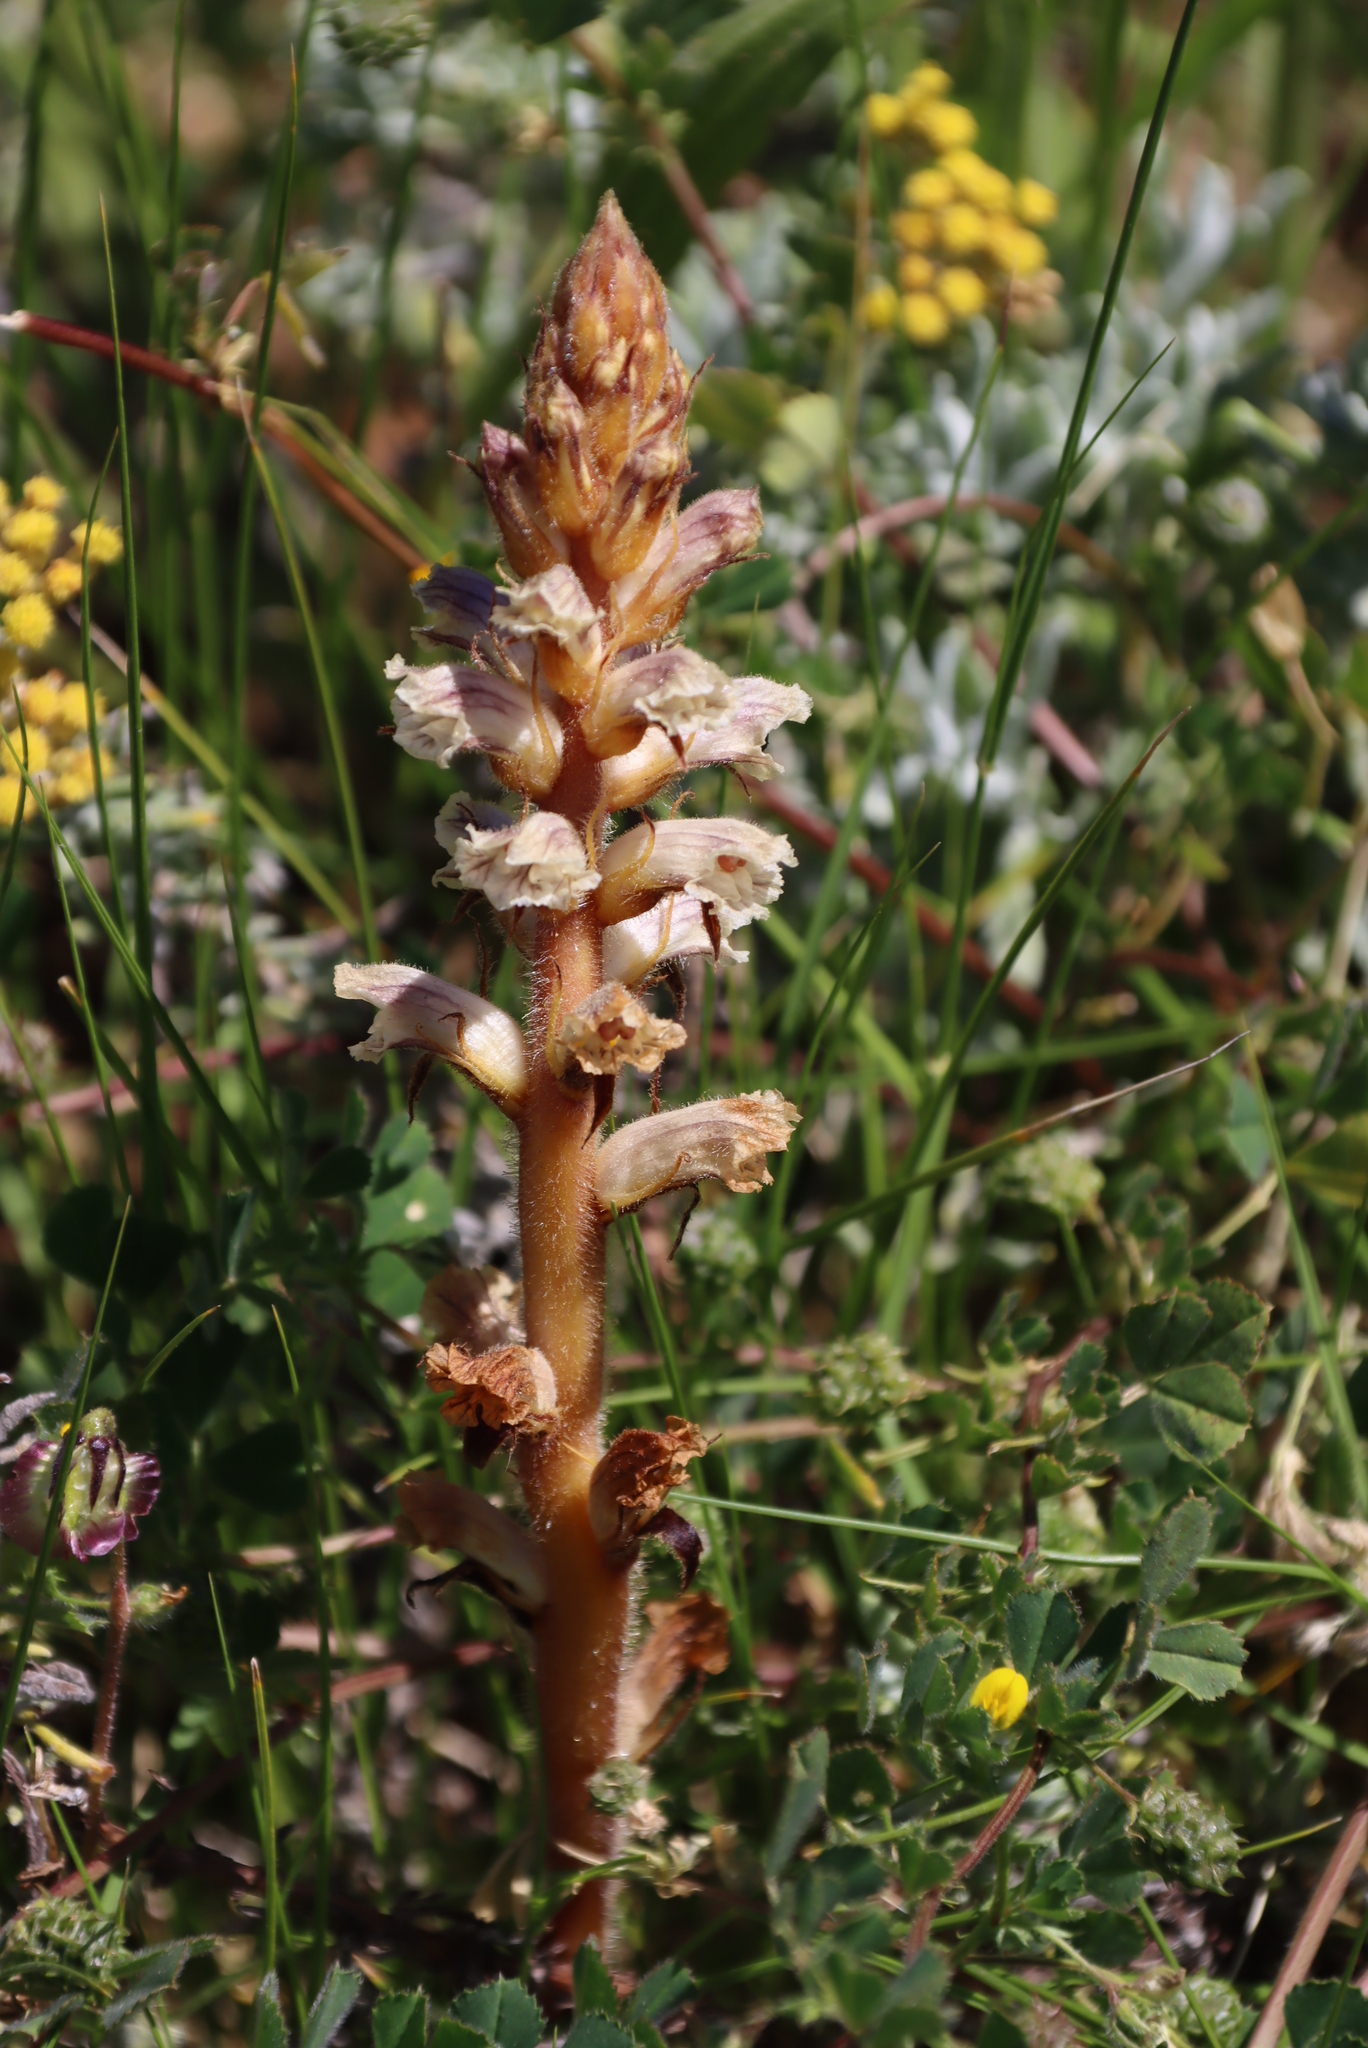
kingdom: Plantae
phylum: Tracheophyta
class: Magnoliopsida
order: Lamiales
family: Orobanchaceae
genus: Orobanche
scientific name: Orobanche minor
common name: Common broomrape
